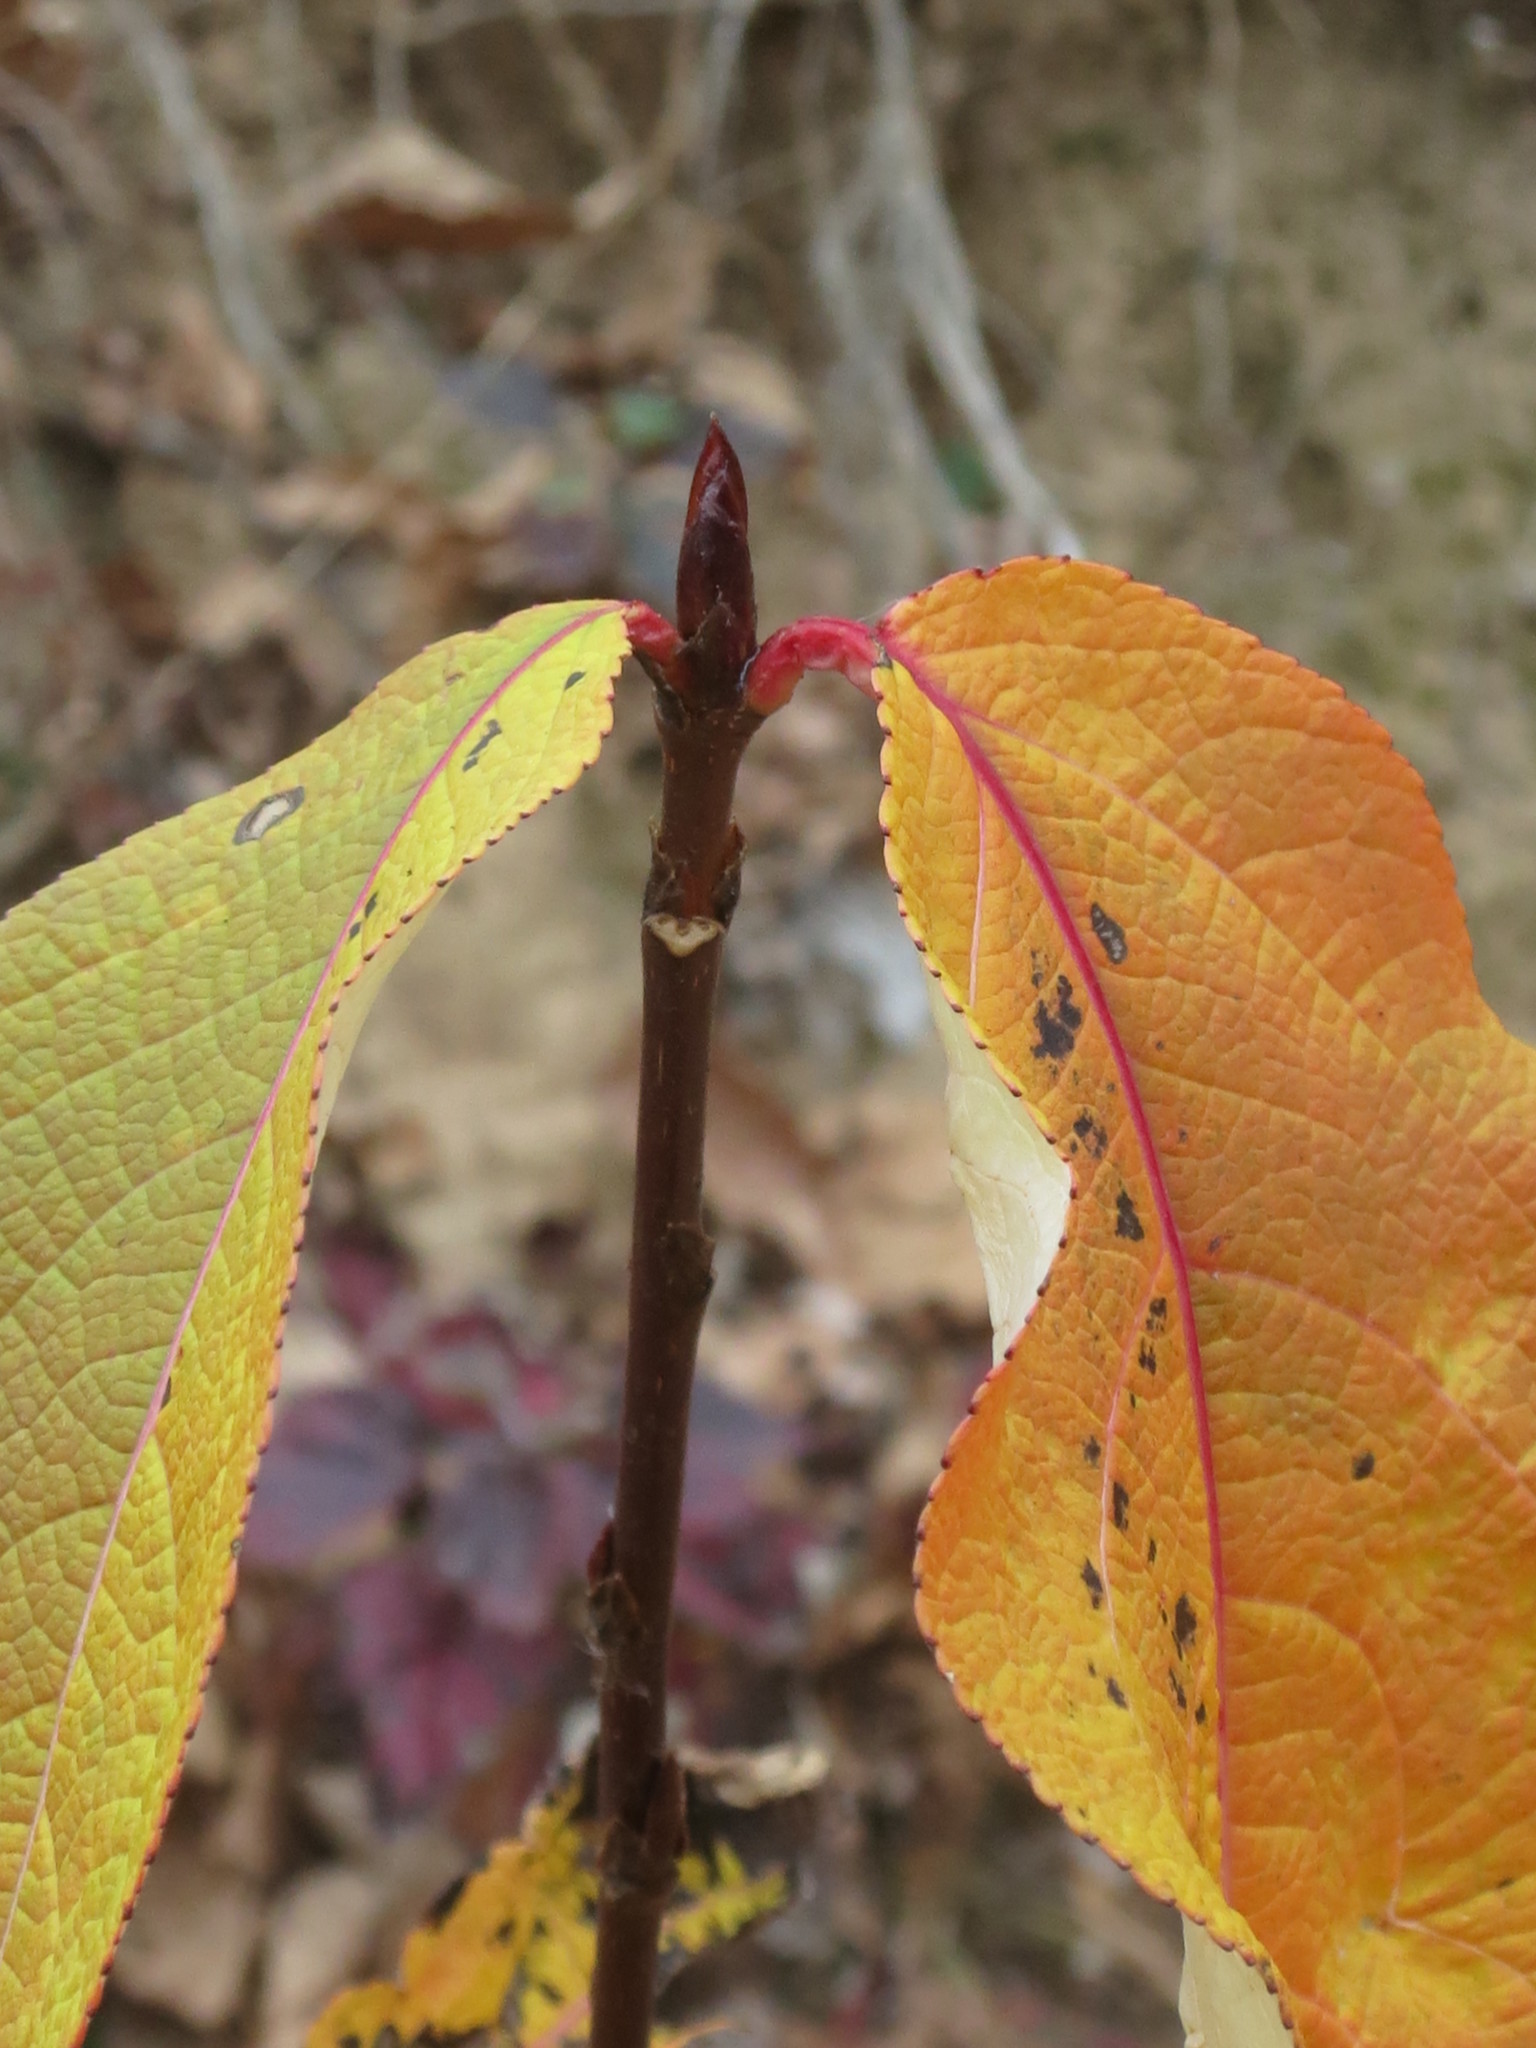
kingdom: Plantae
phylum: Tracheophyta
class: Magnoliopsida
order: Malpighiales
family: Salicaceae
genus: Populus
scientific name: Populus suaveolens
